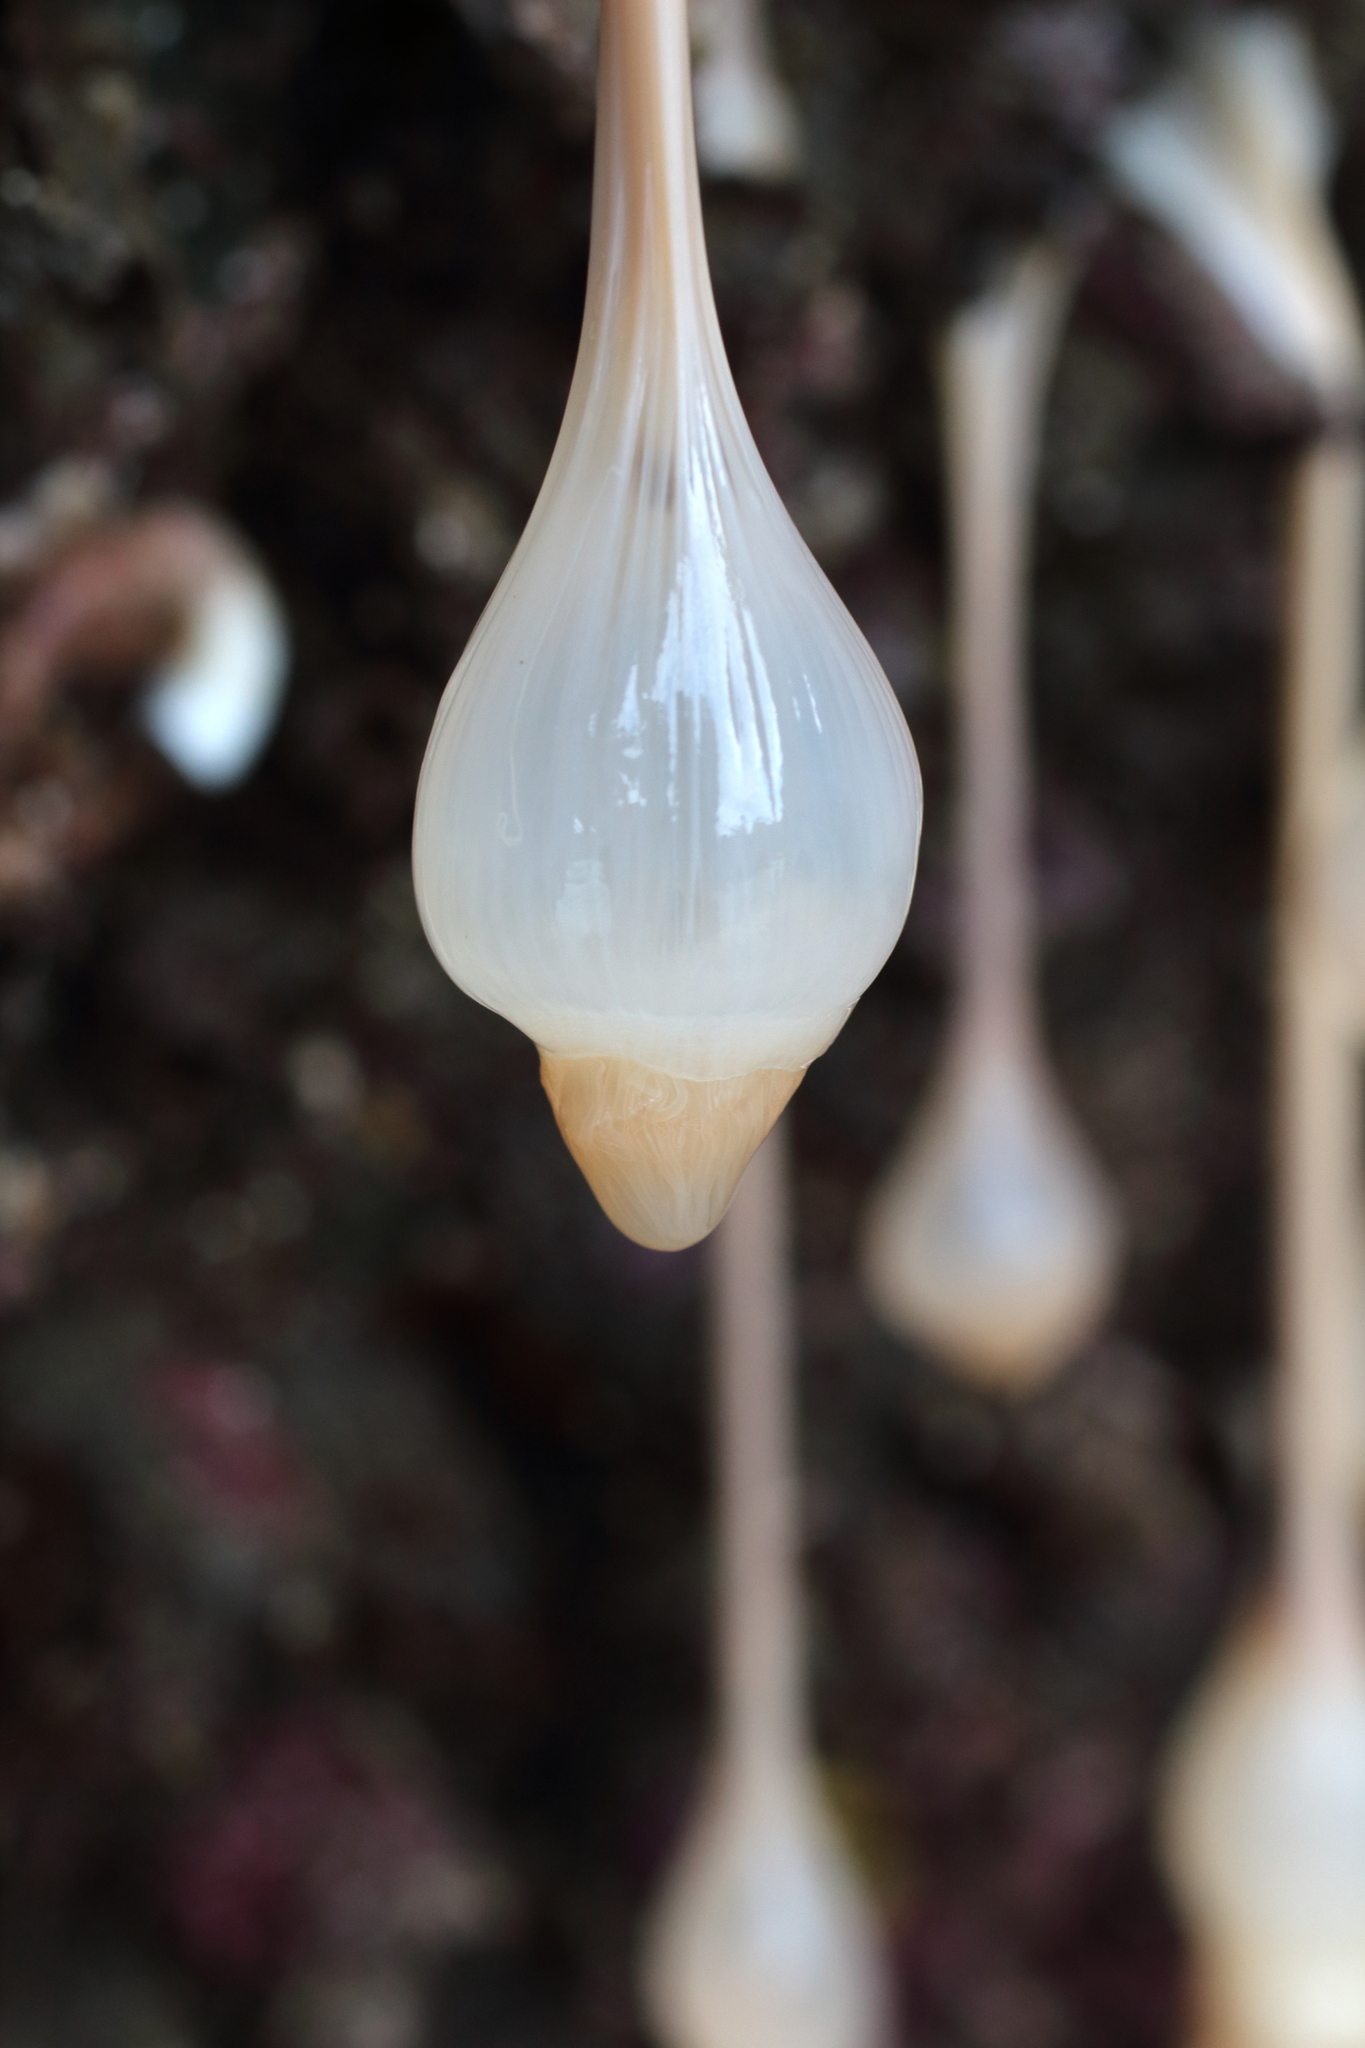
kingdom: Animalia
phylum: Cnidaria
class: Anthozoa
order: Actiniaria
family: Metridiidae
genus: Metridium
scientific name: Metridium senile
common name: Clonal plumose anemone
